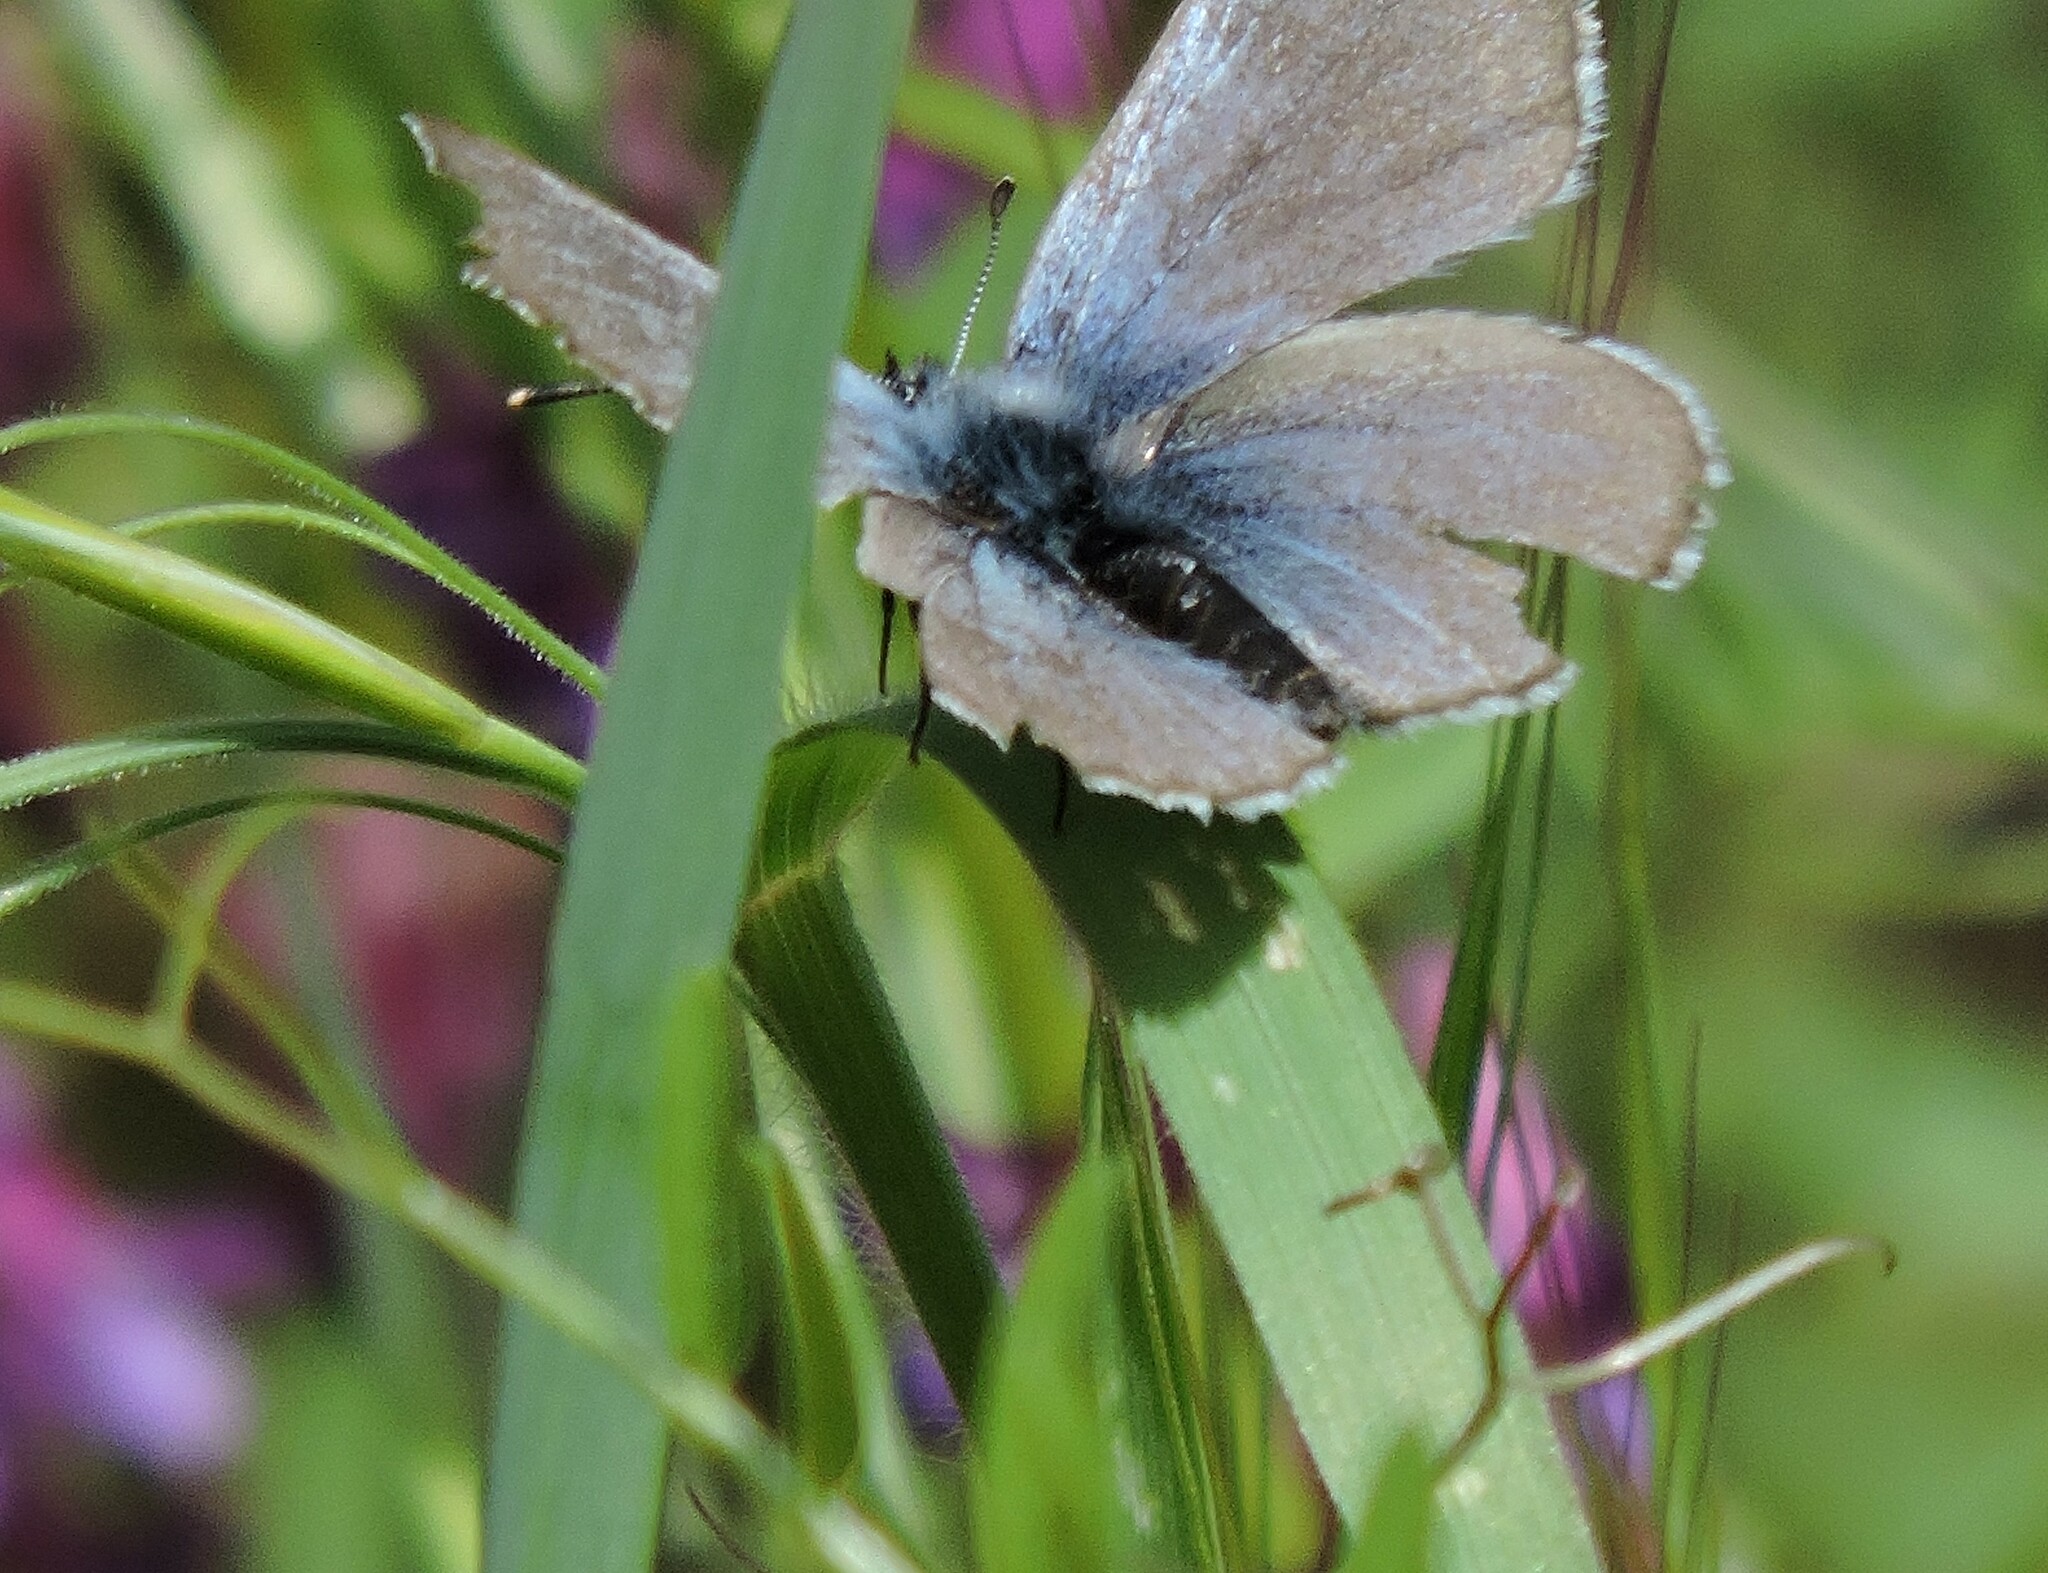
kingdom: Animalia
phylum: Arthropoda
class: Insecta
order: Lepidoptera
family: Lycaenidae
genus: Glaucopsyche
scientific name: Glaucopsyche lygdamus
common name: Silvery blue
